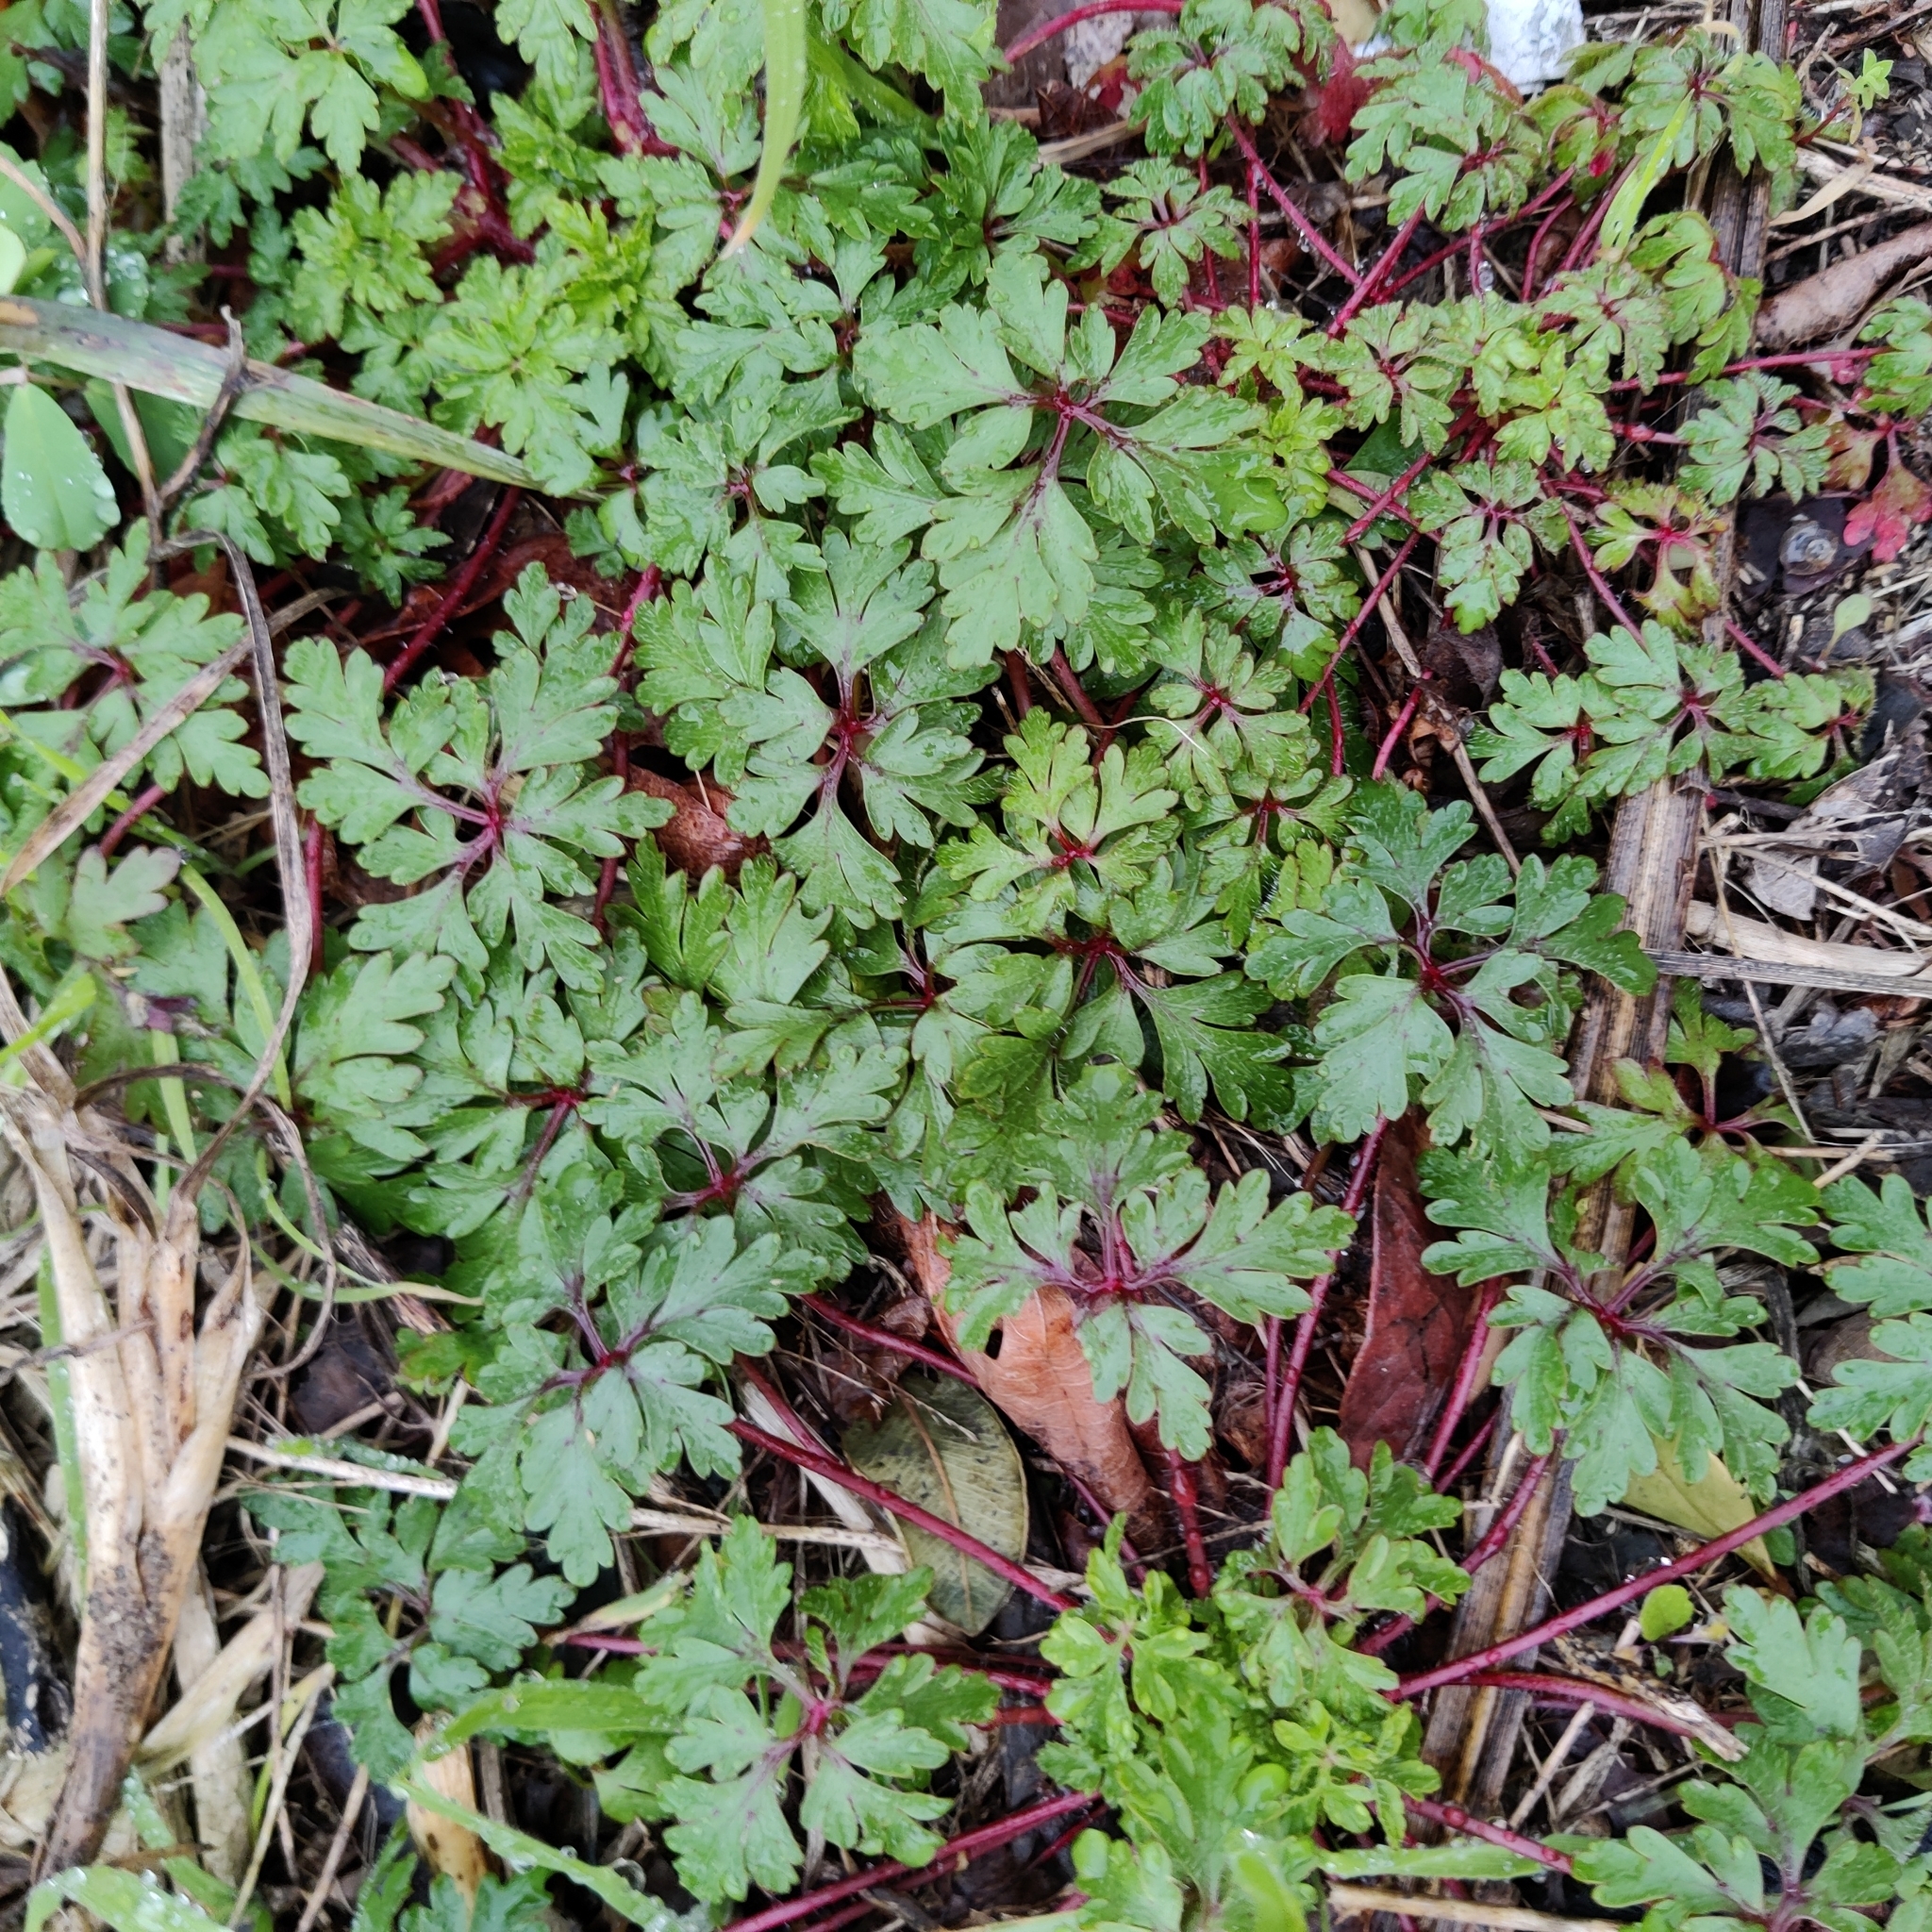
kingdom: Plantae
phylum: Tracheophyta
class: Magnoliopsida
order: Geraniales
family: Geraniaceae
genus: Geranium
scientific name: Geranium robertianum
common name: Herb-robert
